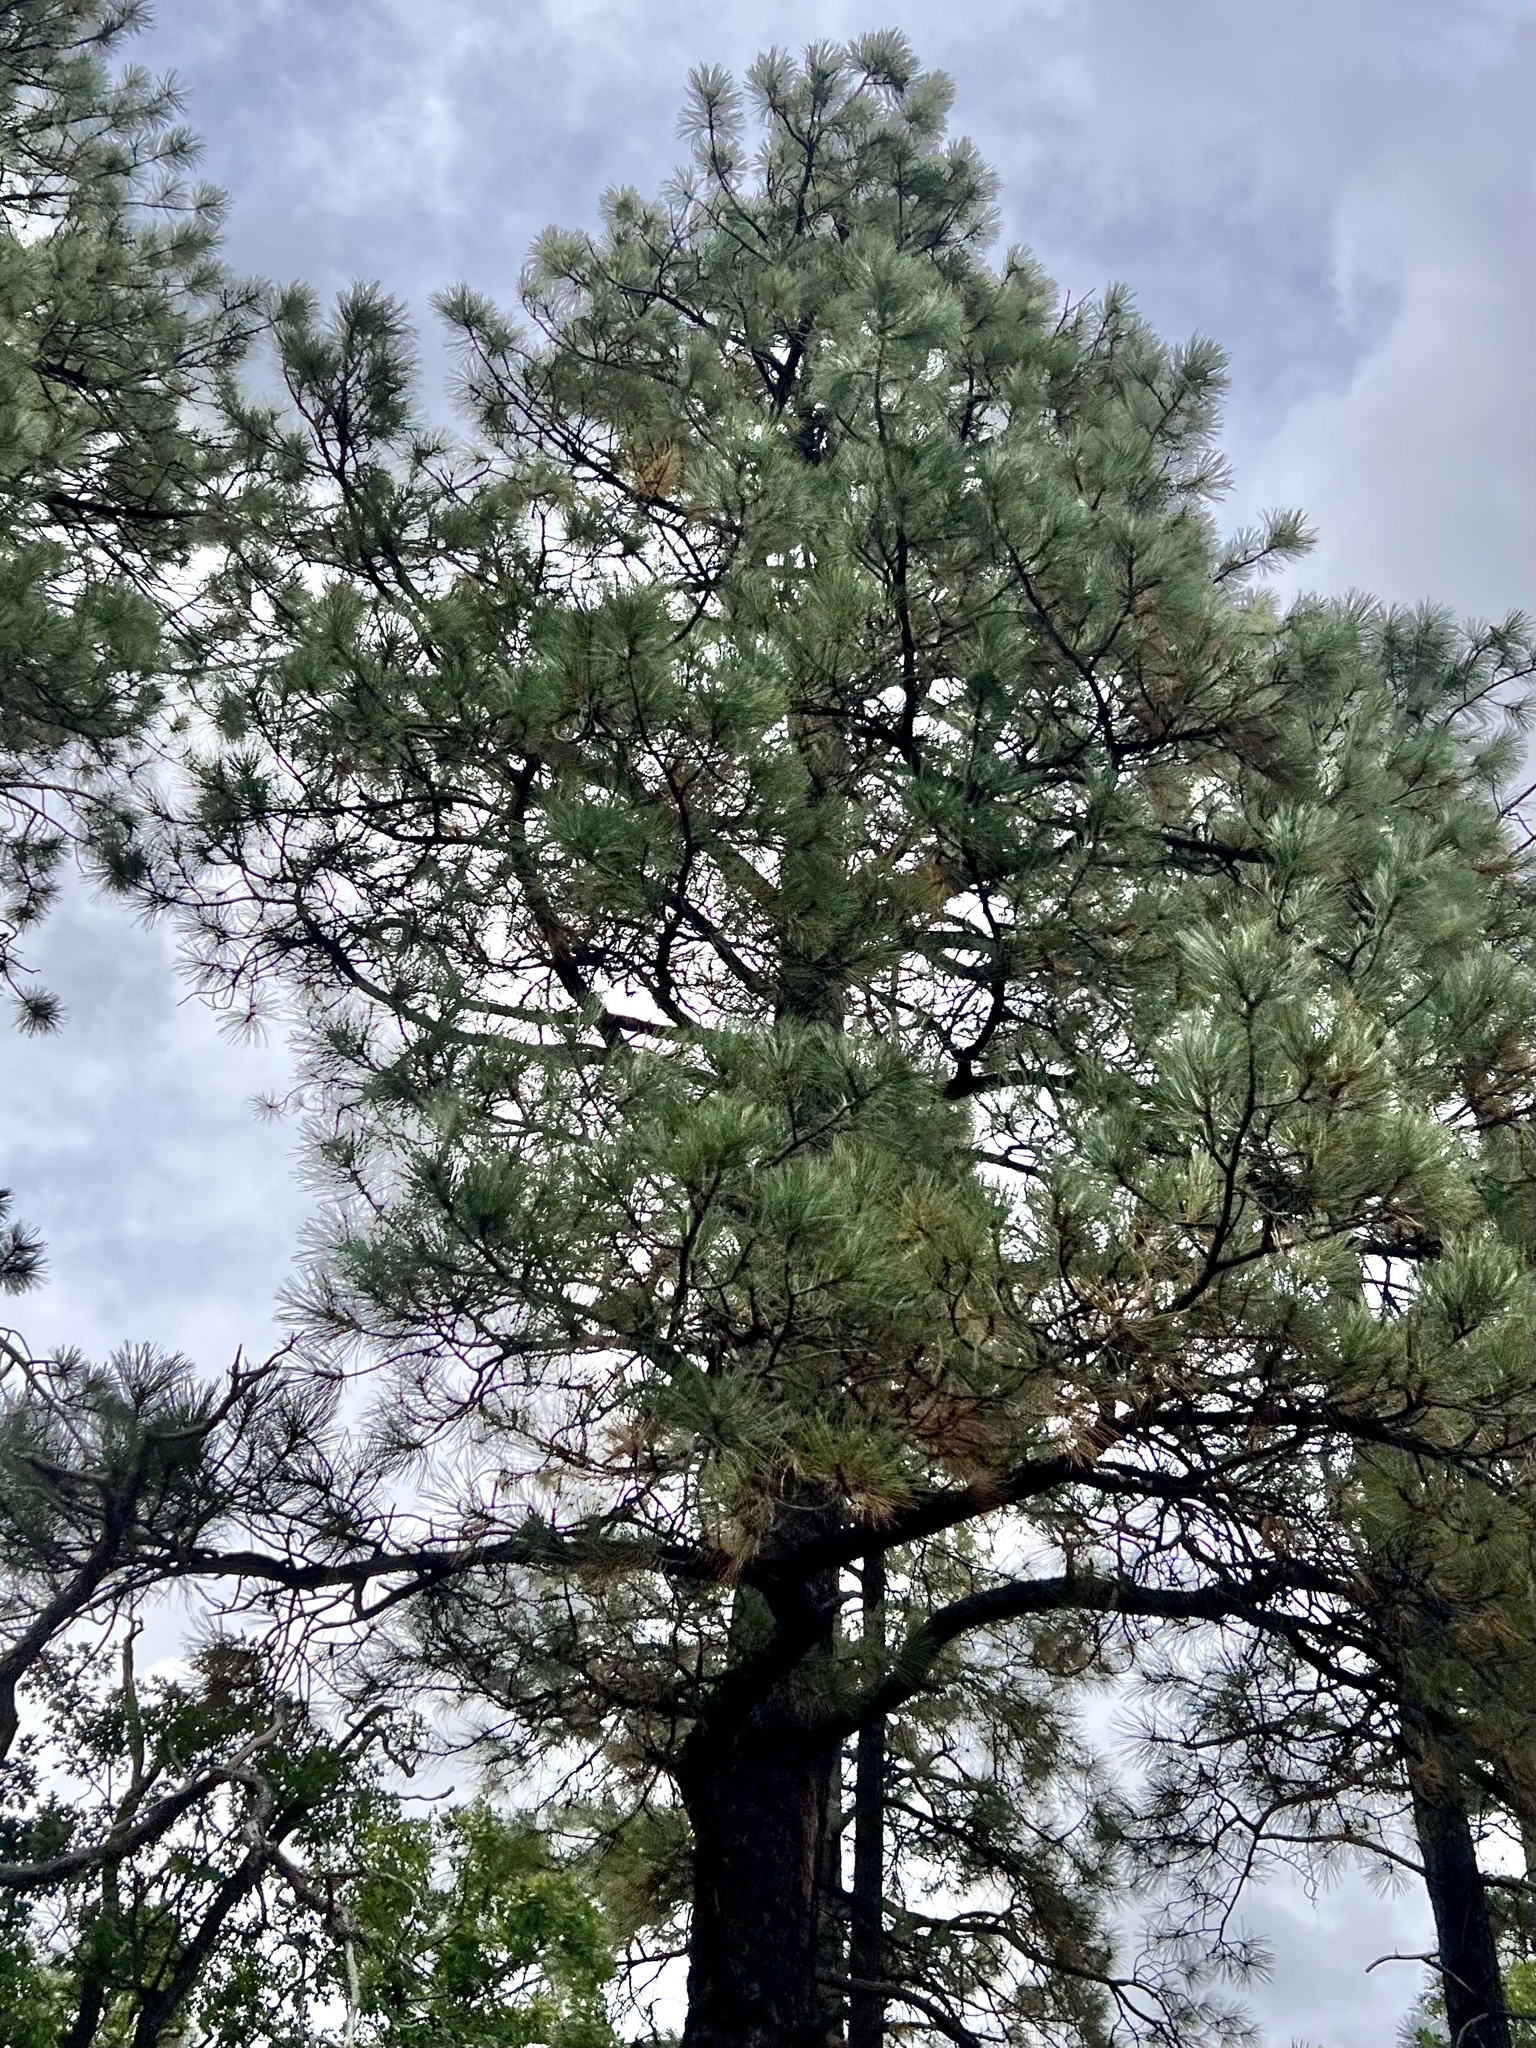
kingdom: Plantae
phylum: Tracheophyta
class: Pinopsida
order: Pinales
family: Pinaceae
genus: Pinus
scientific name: Pinus ponderosa
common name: Western yellow-pine
